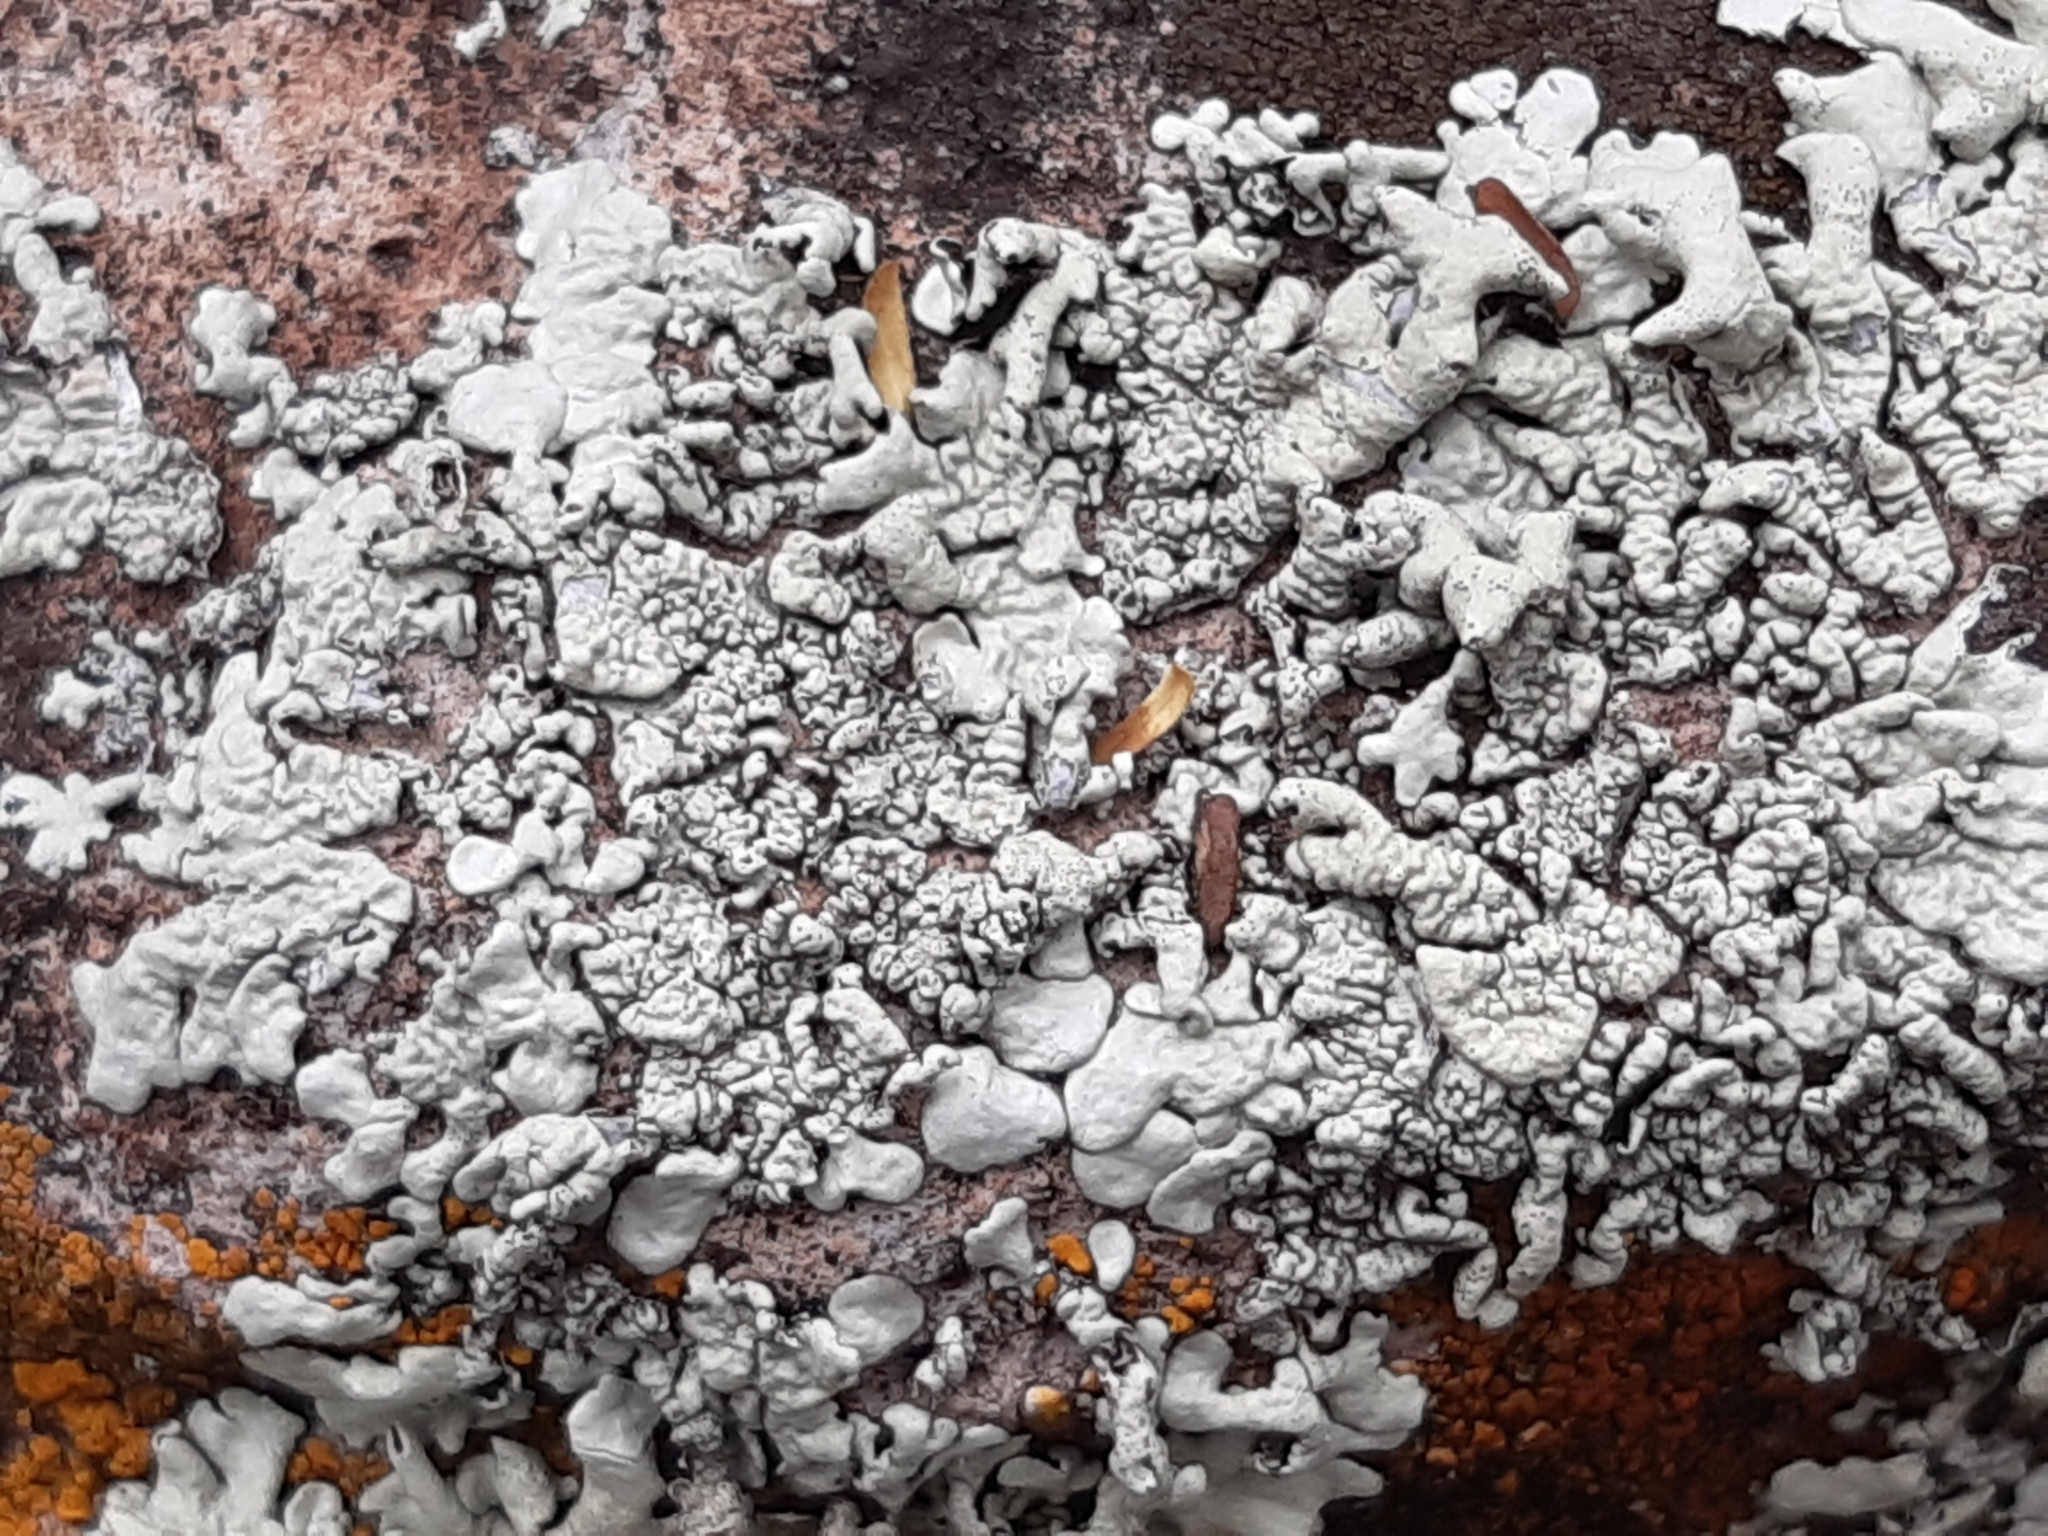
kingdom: Fungi
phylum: Ascomycota
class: Lecanoromycetes
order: Caliciales
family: Physciaceae
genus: Physcia
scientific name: Physcia caesia
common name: Blue-gray rosette lichen
